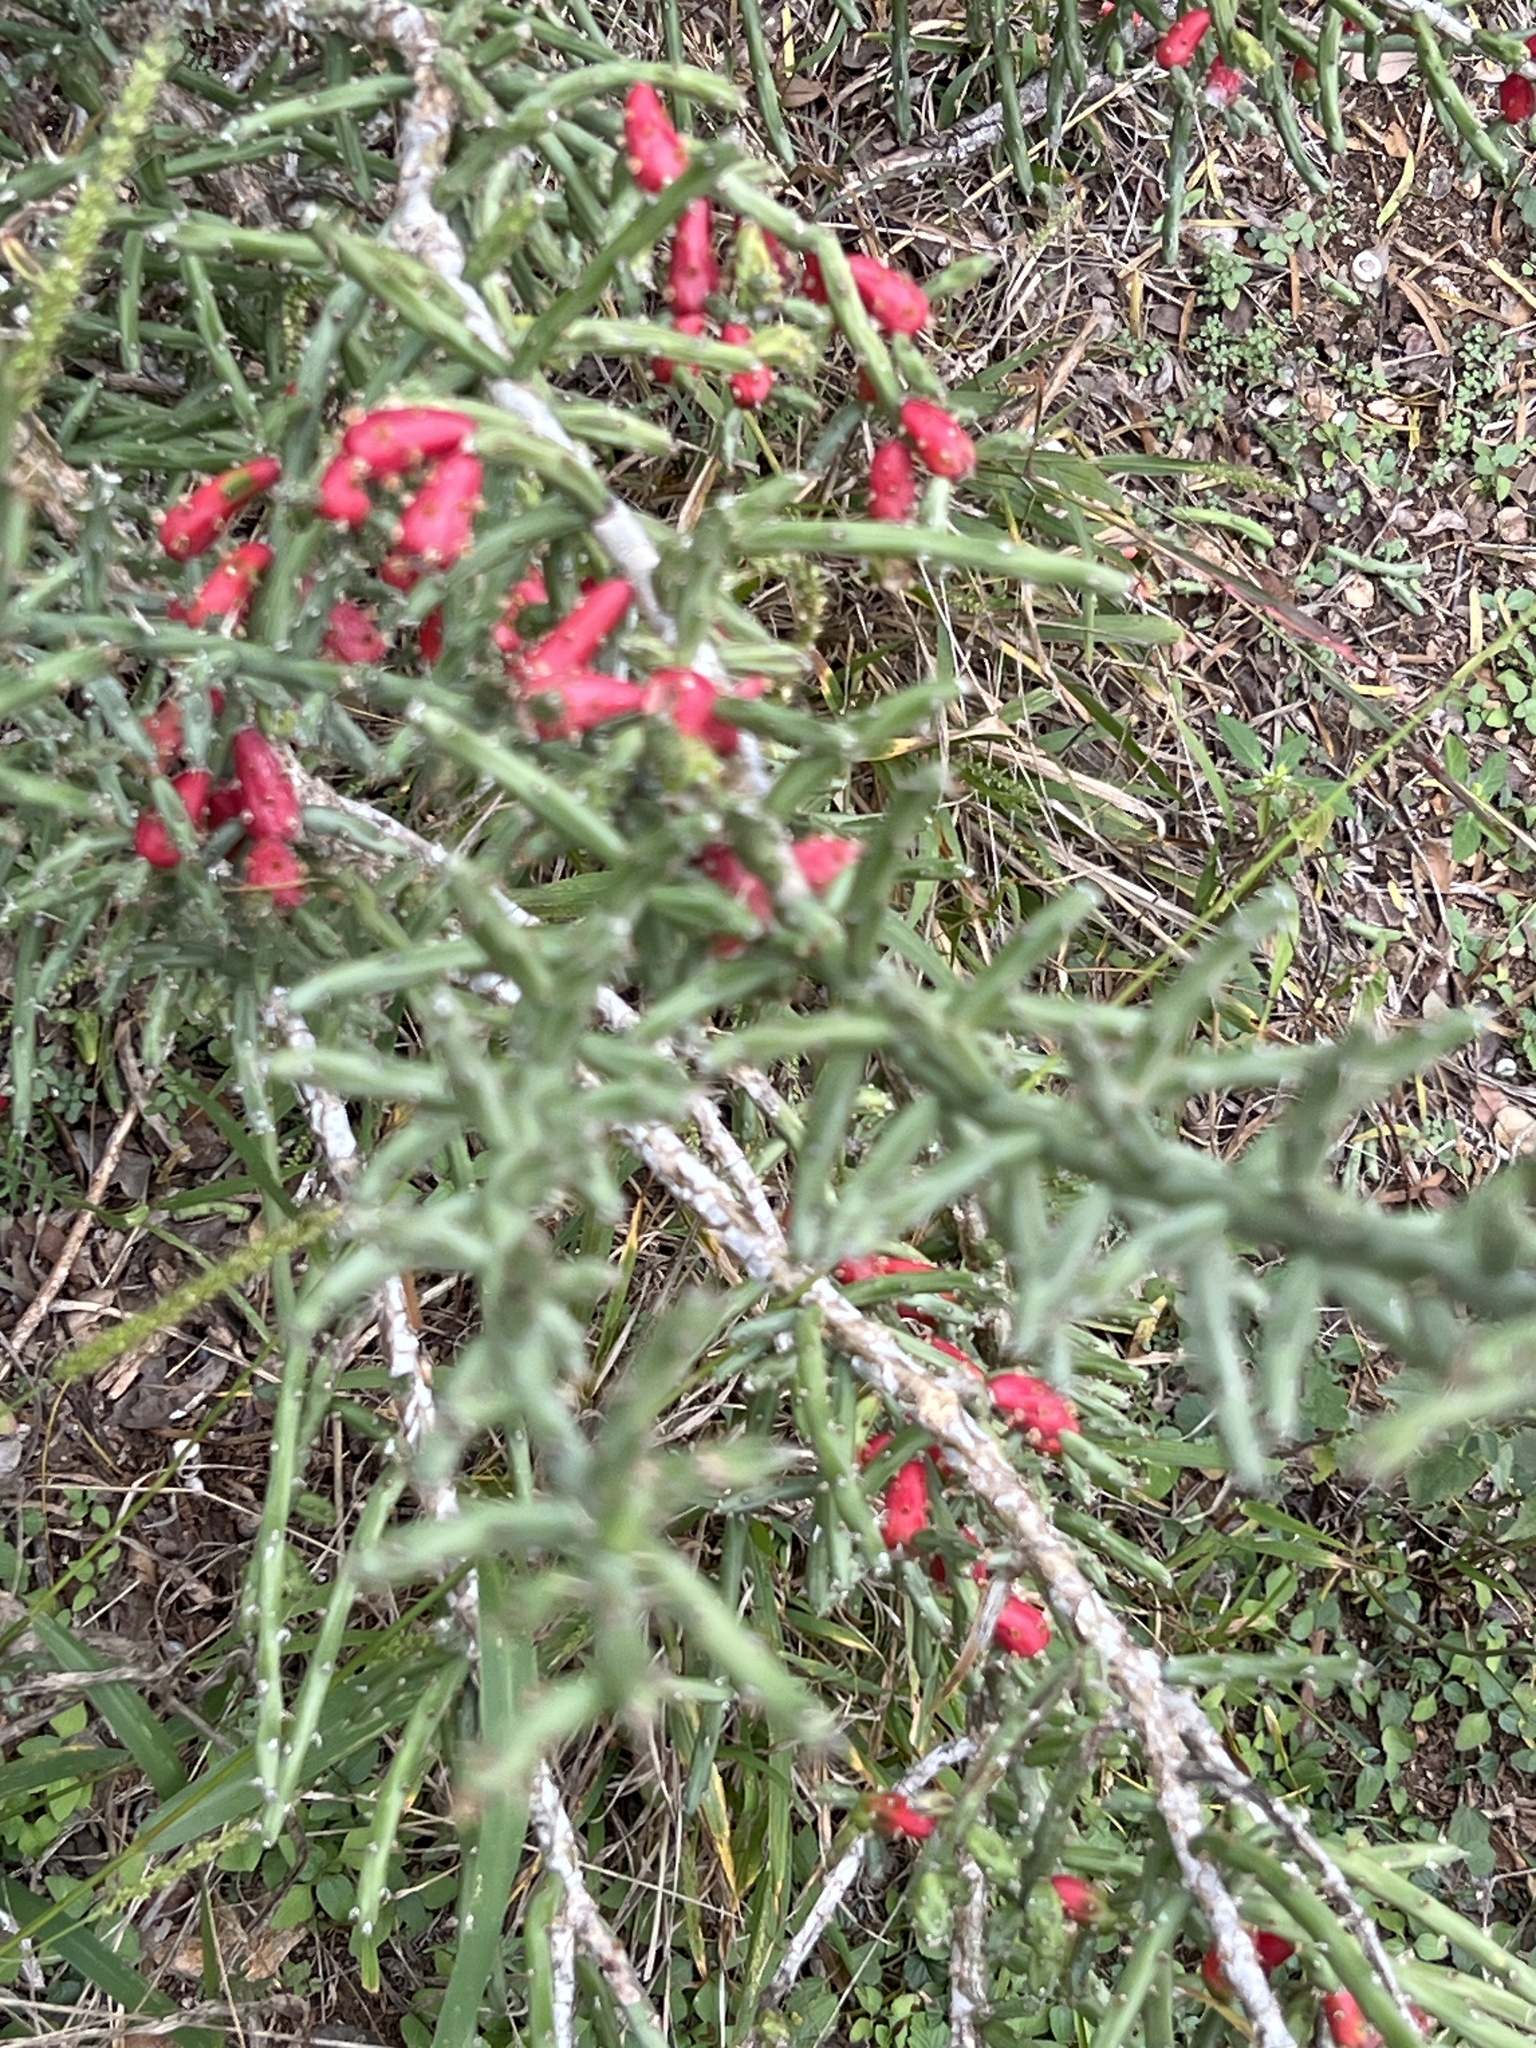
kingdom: Plantae
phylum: Tracheophyta
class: Magnoliopsida
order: Caryophyllales
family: Cactaceae
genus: Cylindropuntia
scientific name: Cylindropuntia leptocaulis
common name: Christmas cactus
